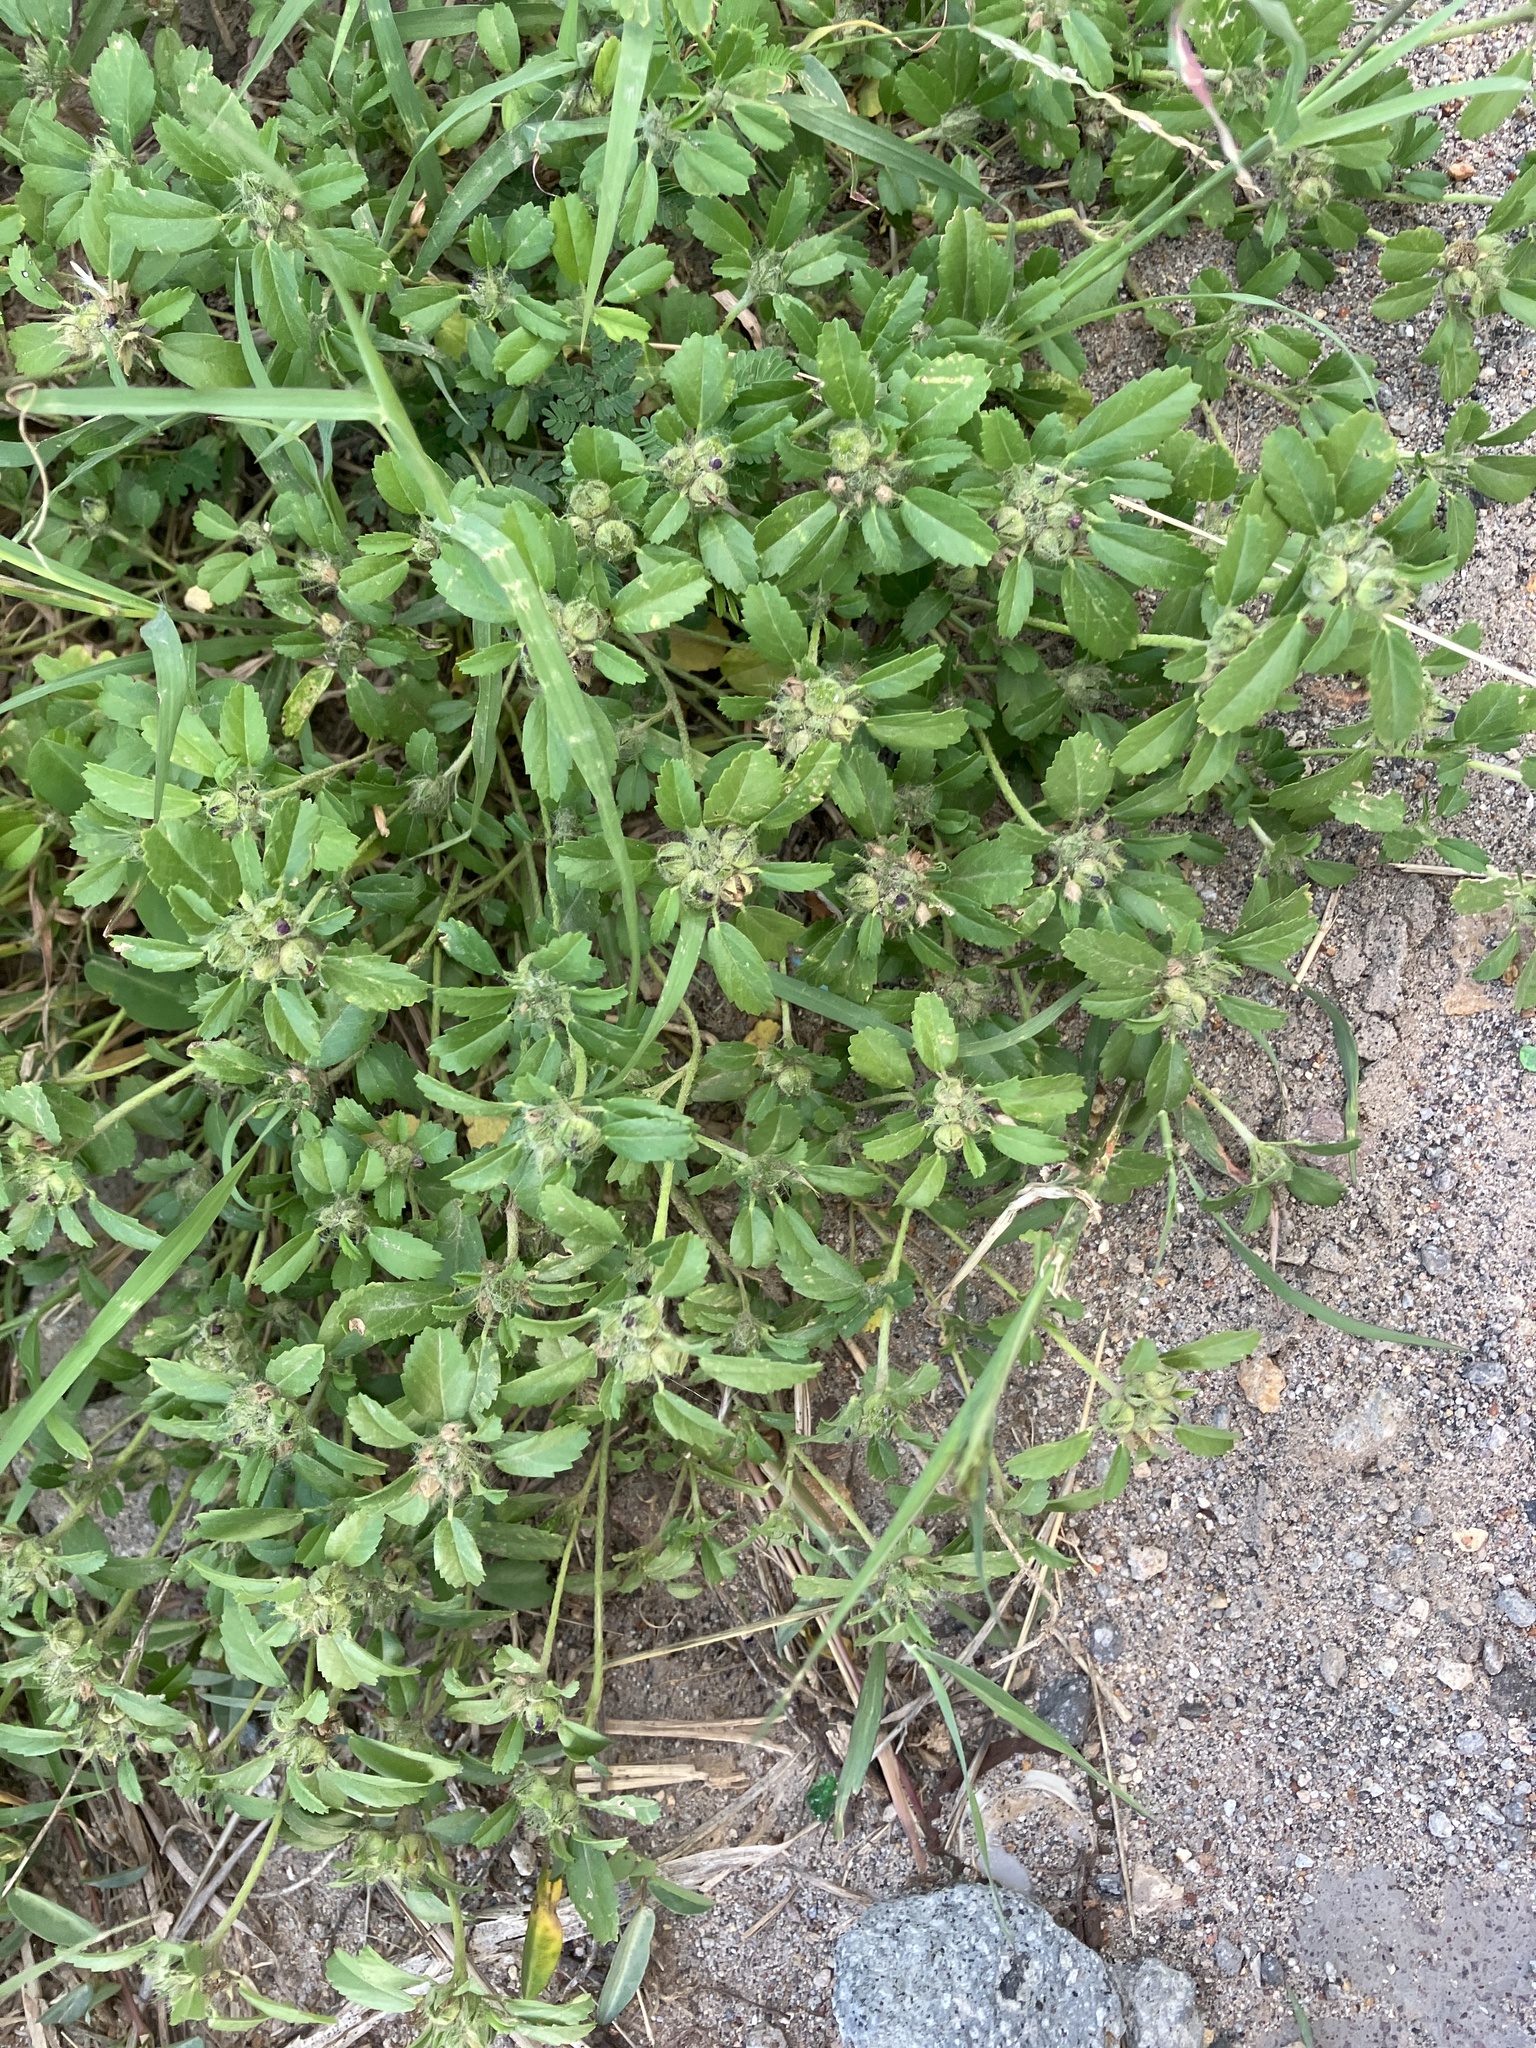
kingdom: Plantae
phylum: Tracheophyta
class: Magnoliopsida
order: Malvales
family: Malvaceae
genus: Sida
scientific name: Sida ciliaris
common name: Bracted fanpetals
